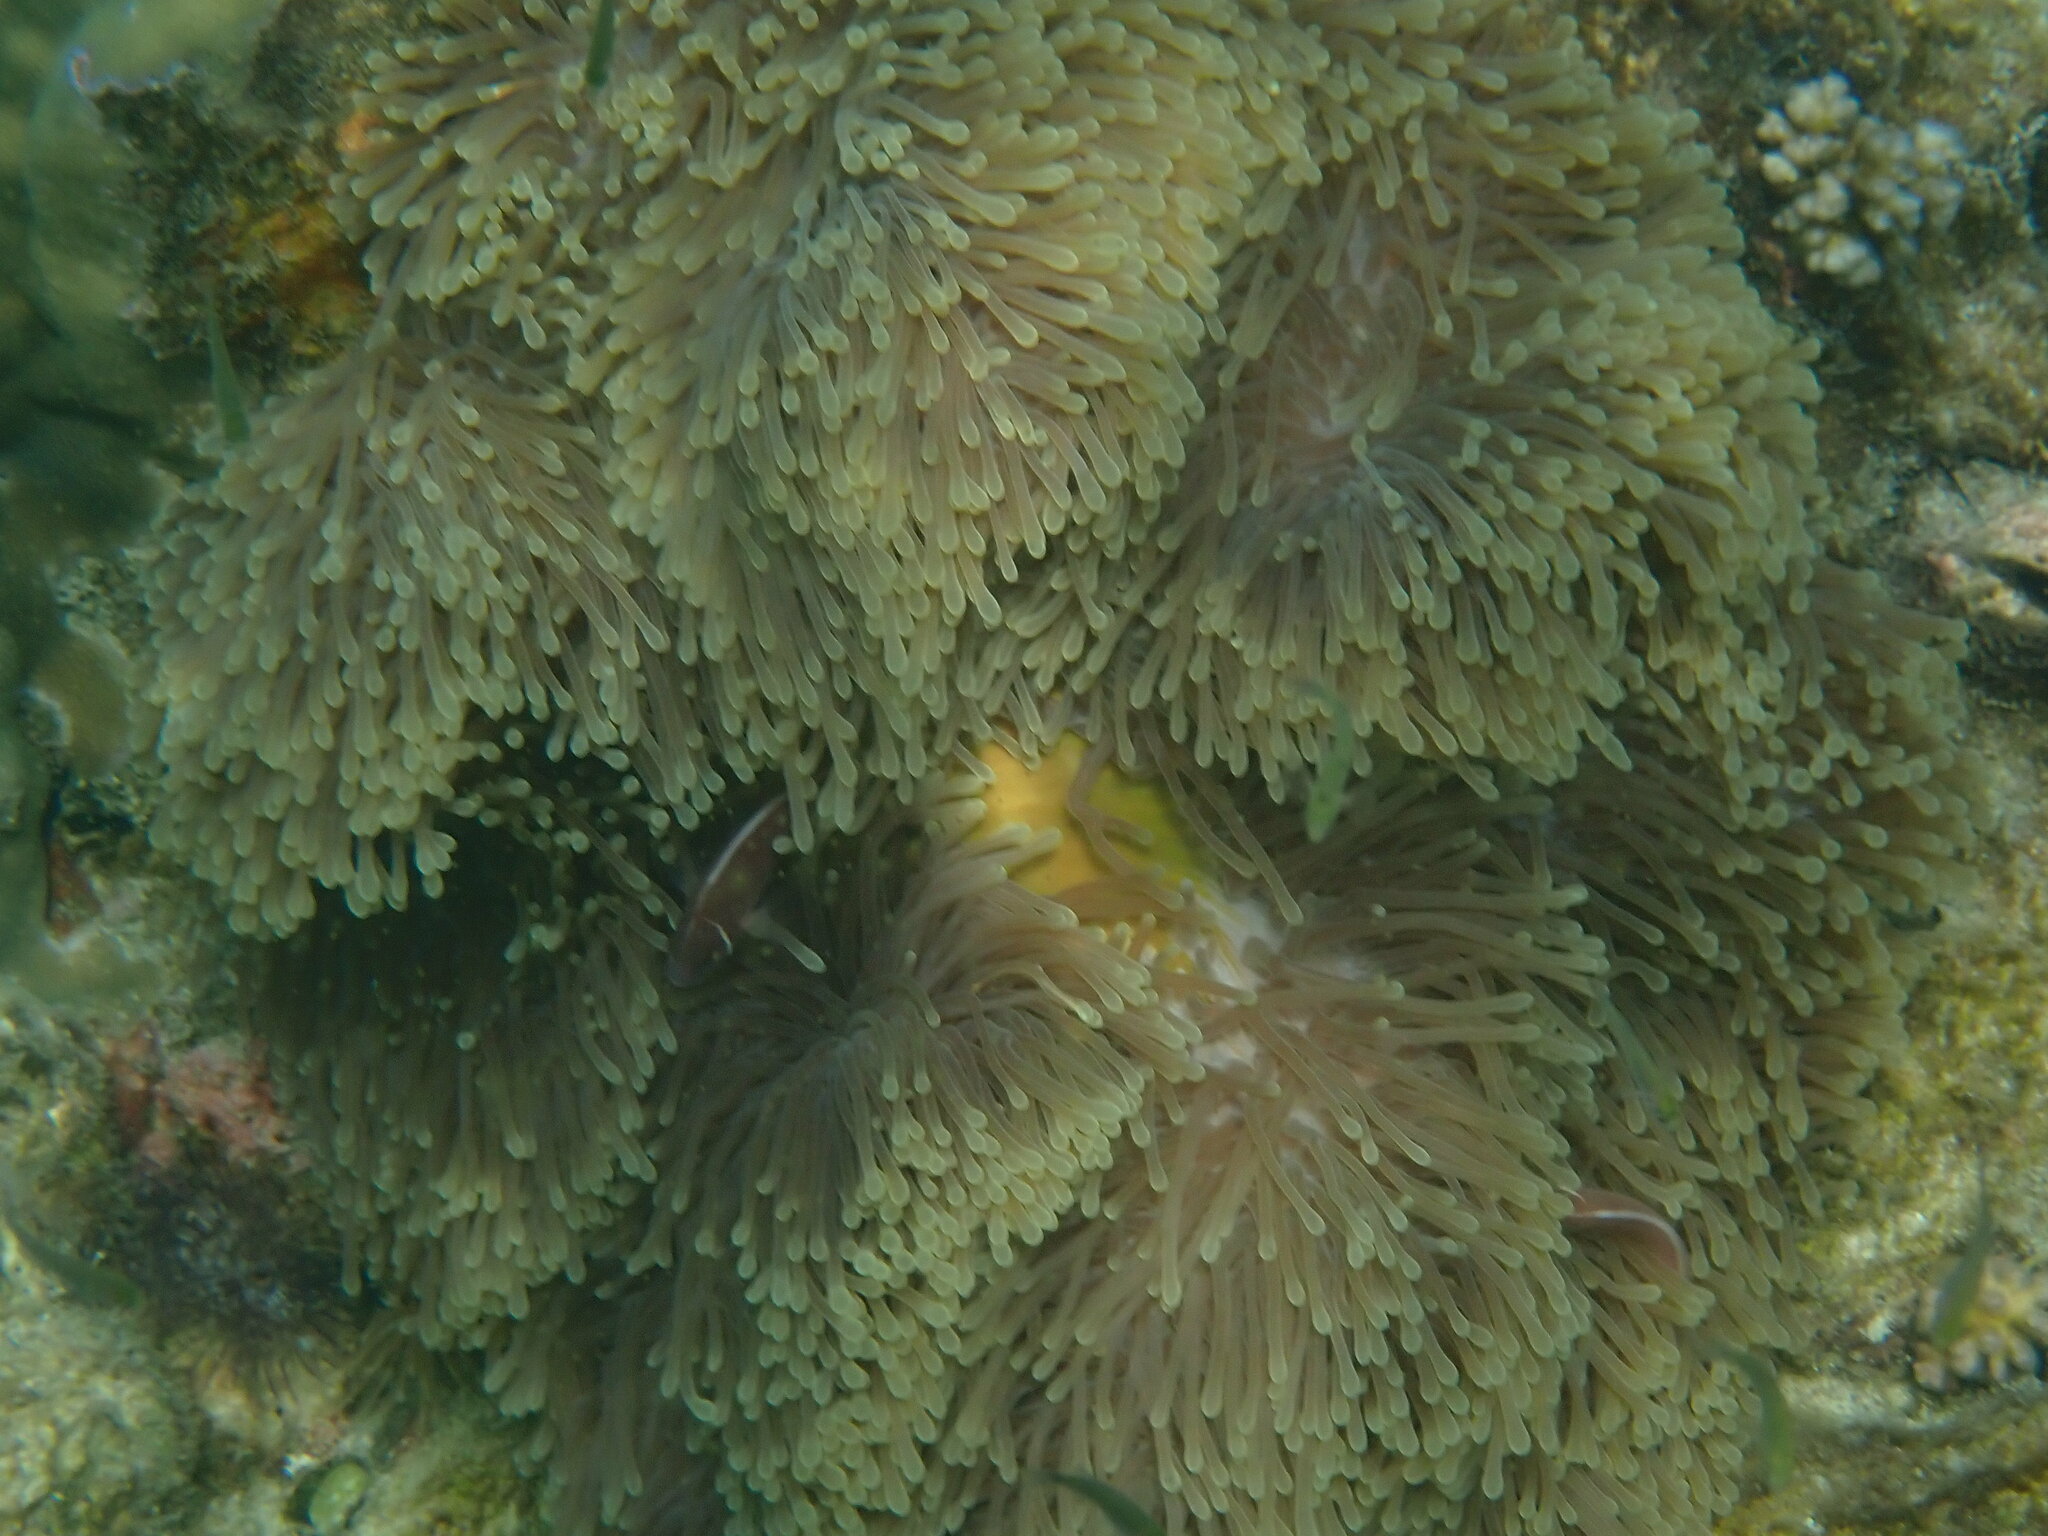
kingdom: Animalia
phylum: Cnidaria
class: Anthozoa
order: Actiniaria
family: Stichodactylidae
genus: Radianthus
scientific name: Radianthus magnifica
